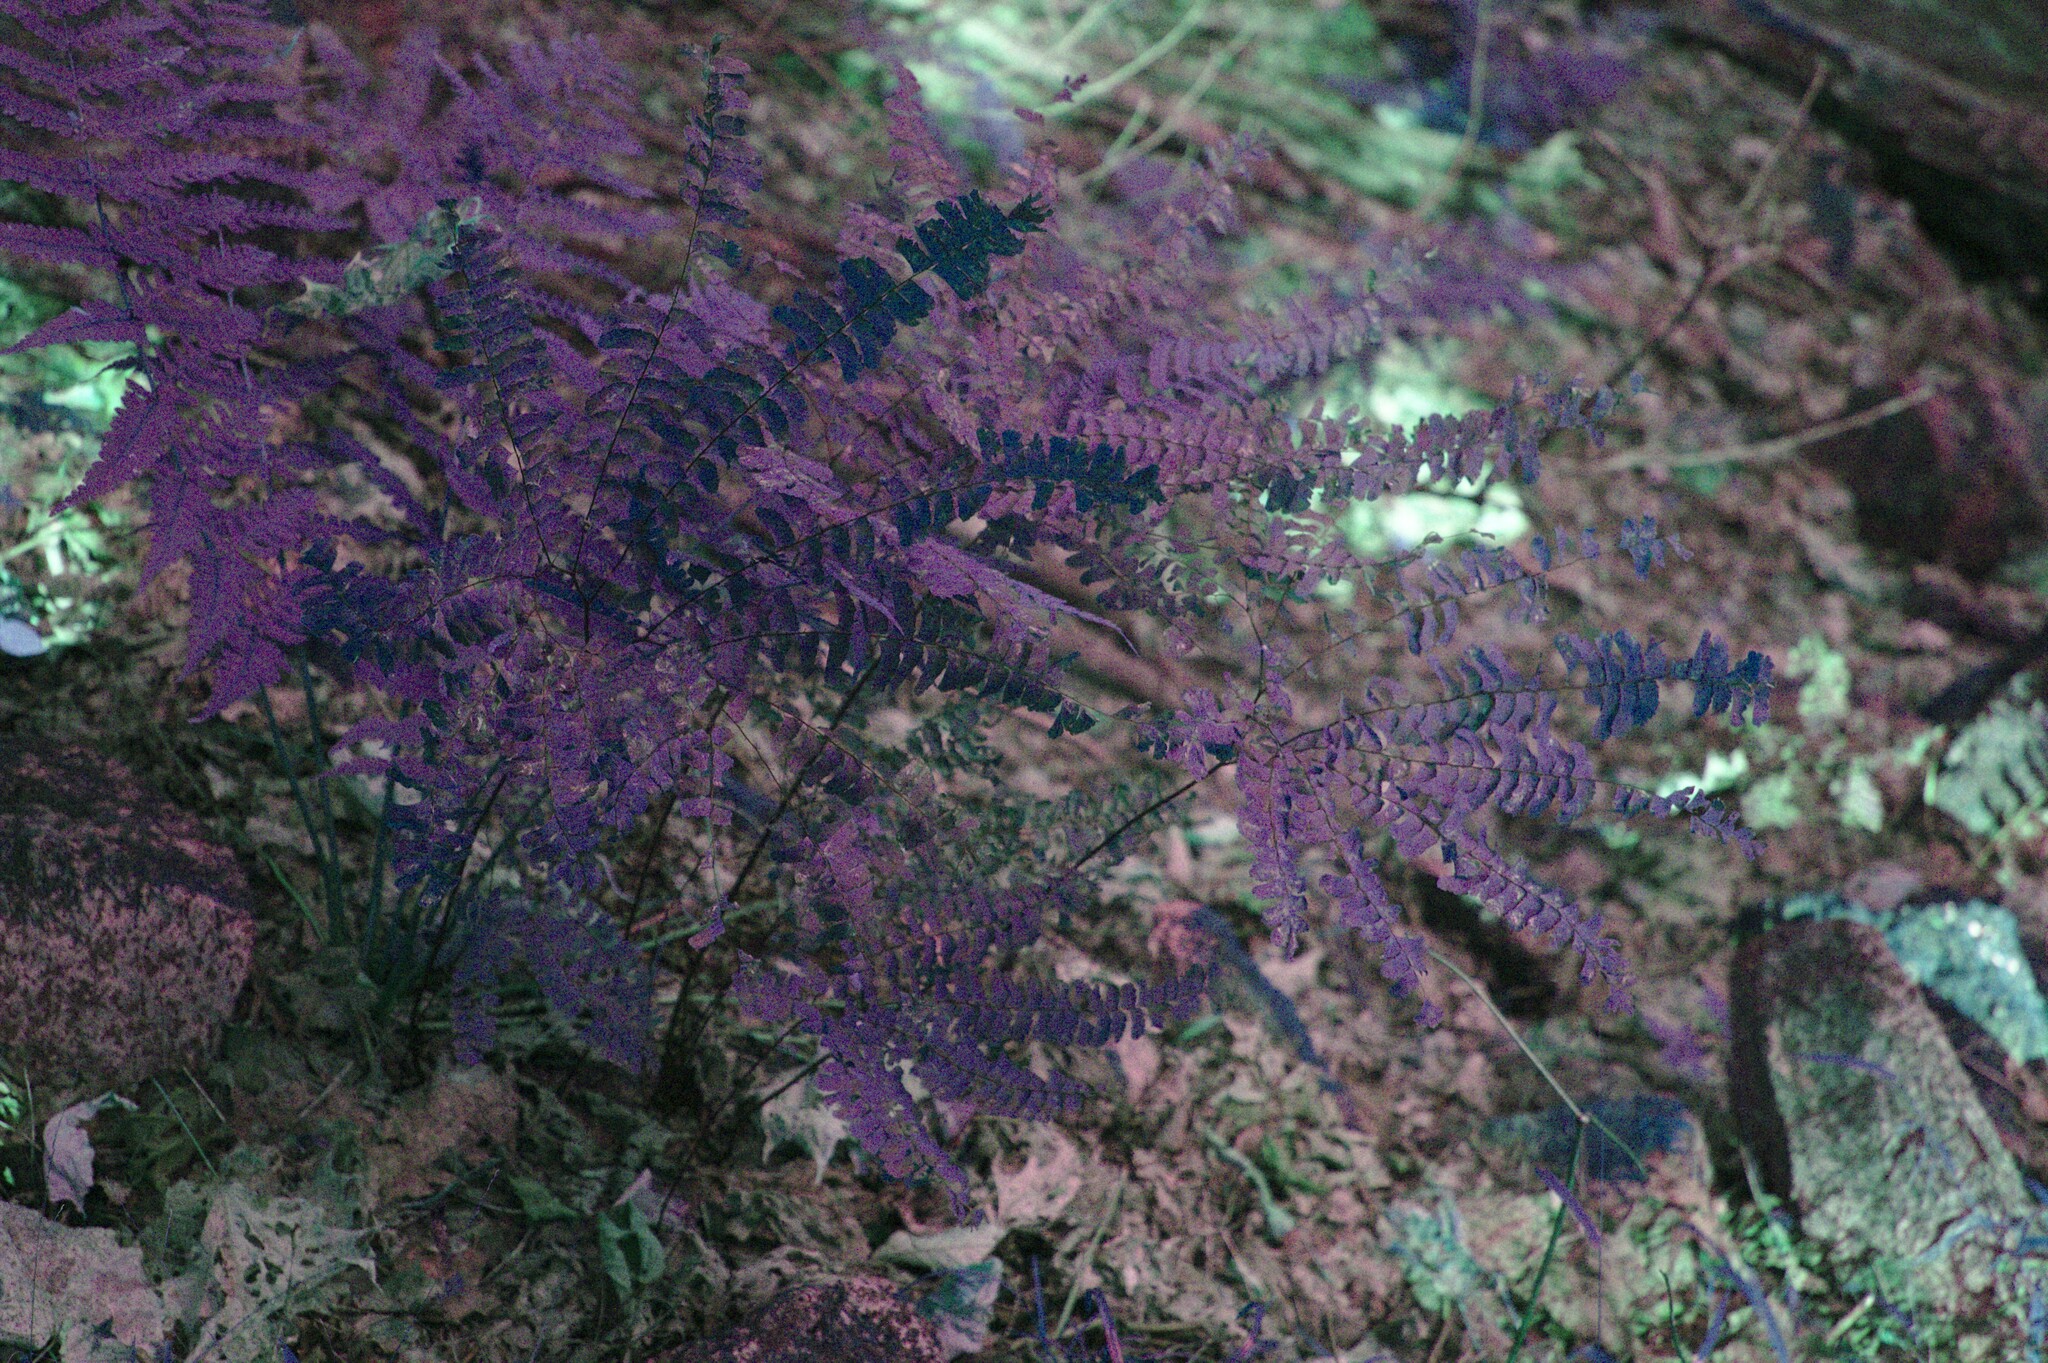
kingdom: Plantae
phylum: Tracheophyta
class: Polypodiopsida
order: Polypodiales
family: Pteridaceae
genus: Adiantum
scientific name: Adiantum pedatum
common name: Five-finger fern
